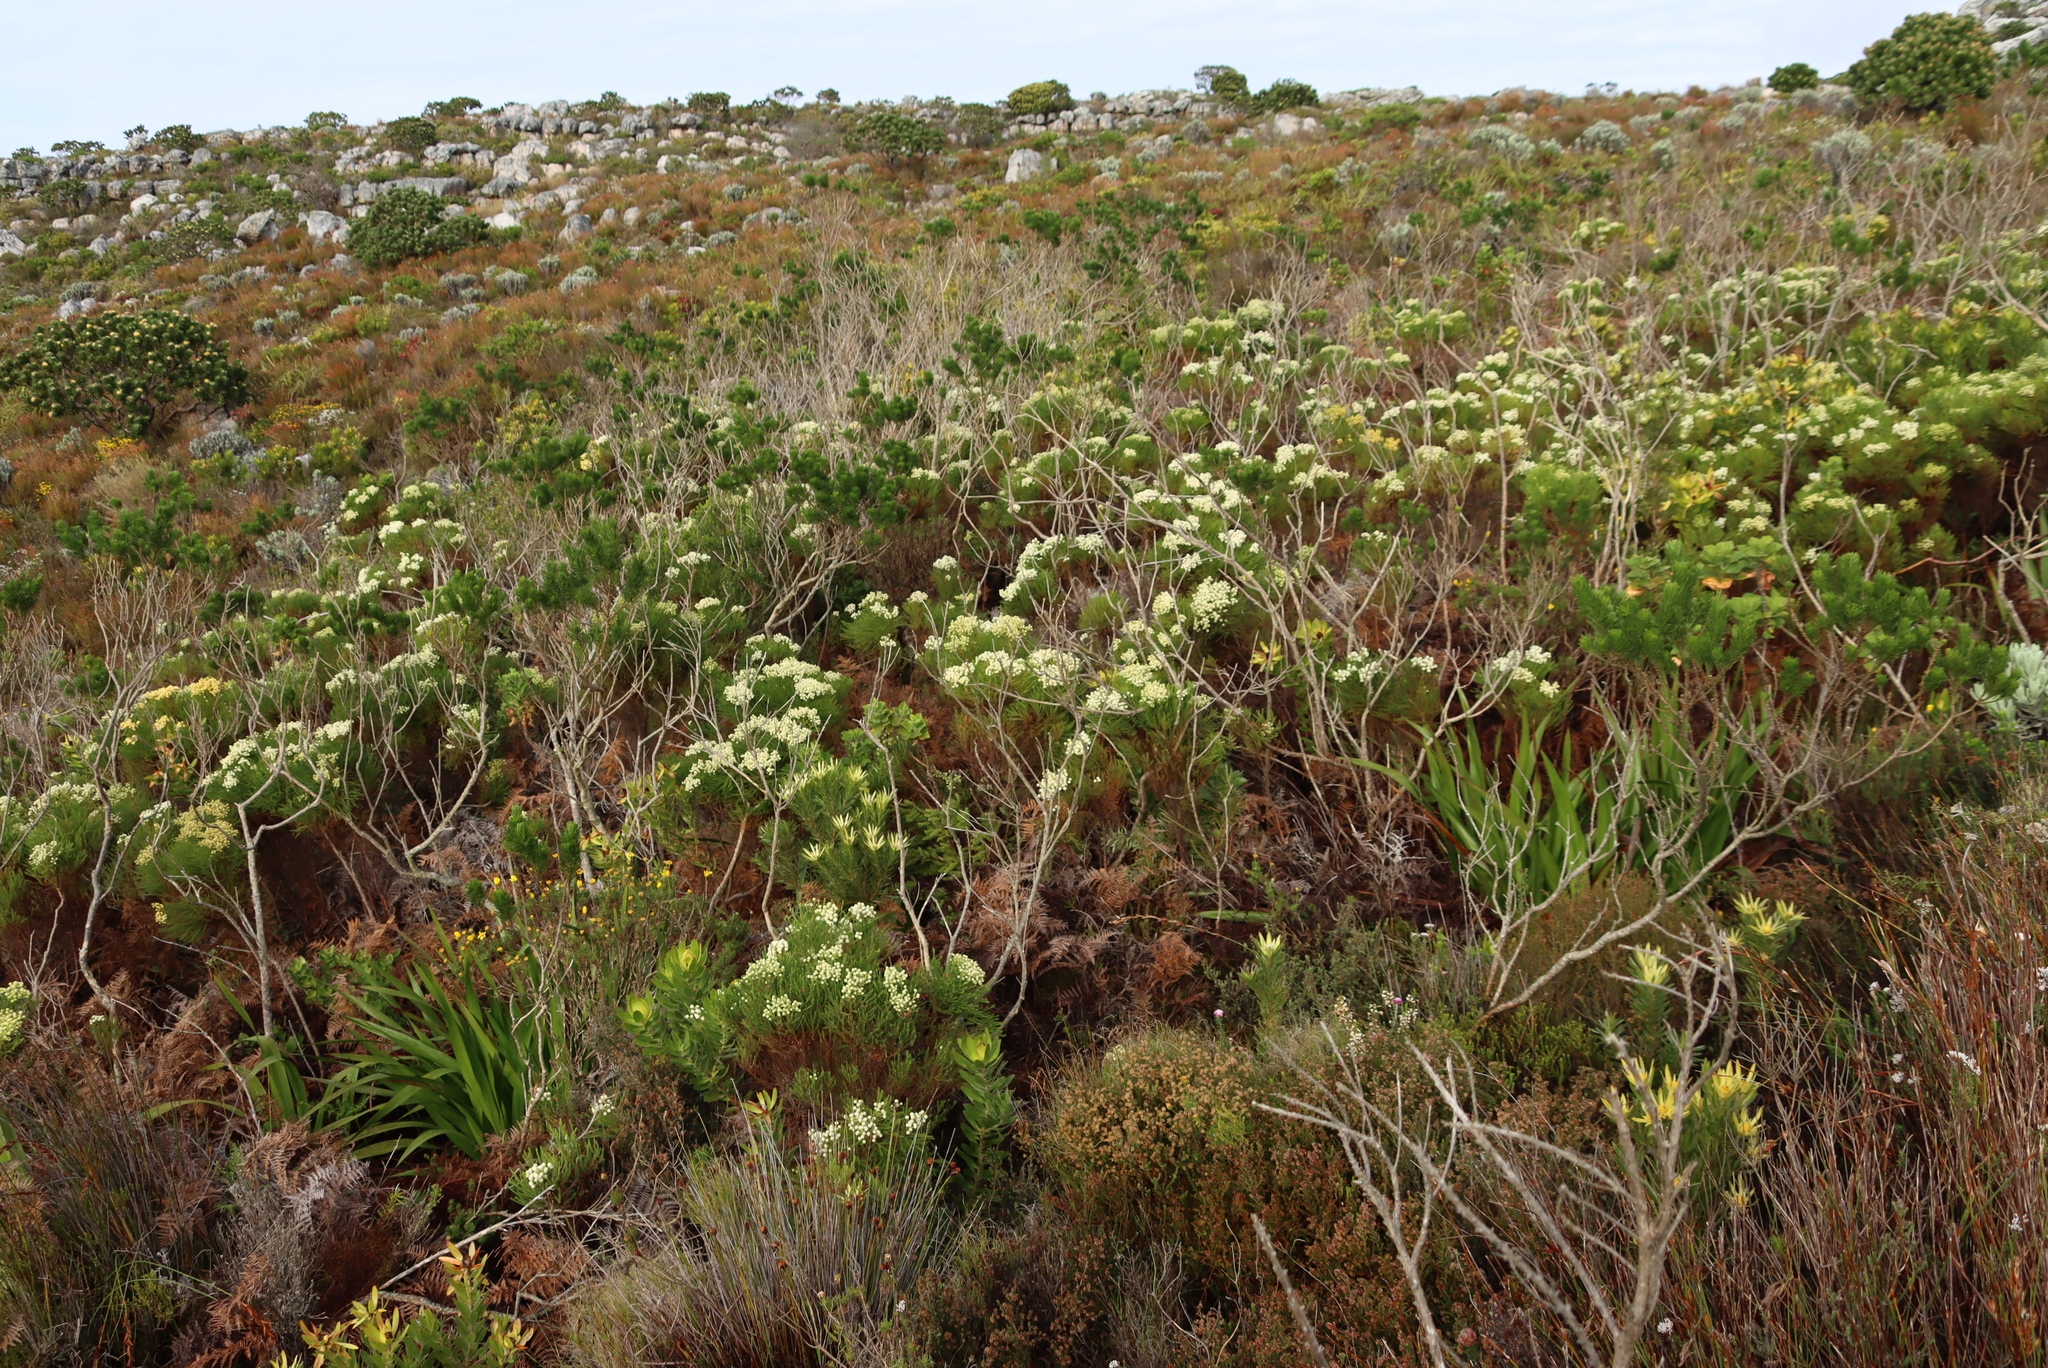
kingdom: Plantae
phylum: Tracheophyta
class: Magnoliopsida
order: Bruniales
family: Bruniaceae
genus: Berzelia
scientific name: Berzelia lanuginosa
